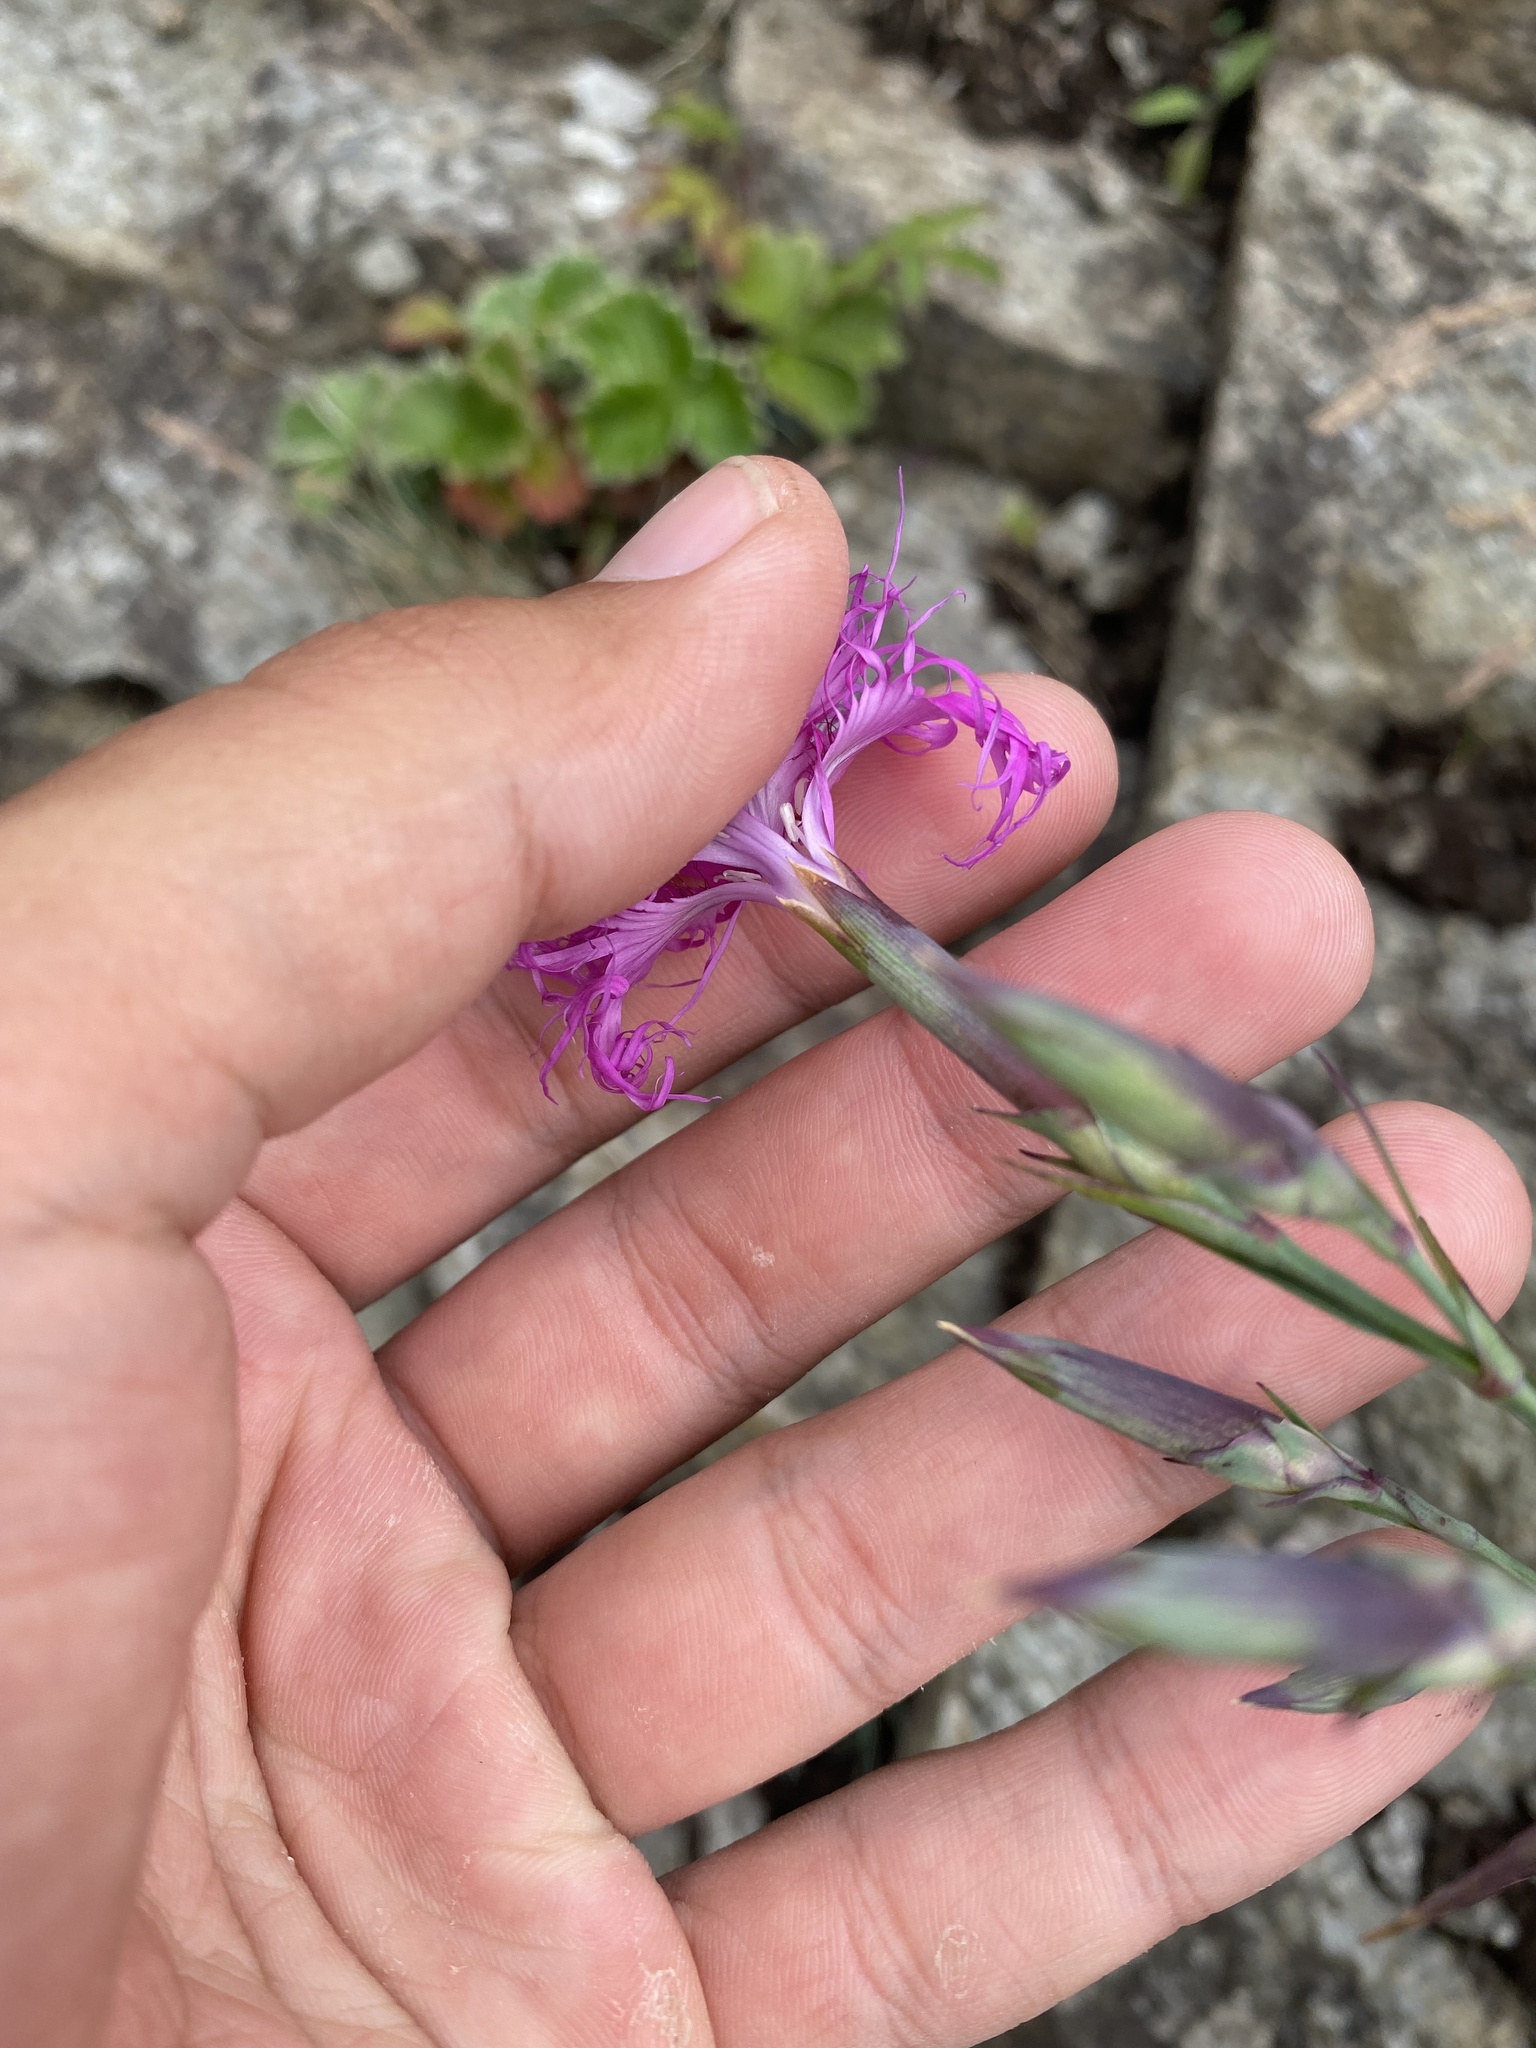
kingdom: Plantae
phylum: Tracheophyta
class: Magnoliopsida
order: Caryophyllales
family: Caryophyllaceae
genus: Dianthus
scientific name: Dianthus superbus
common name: Fringed pink
